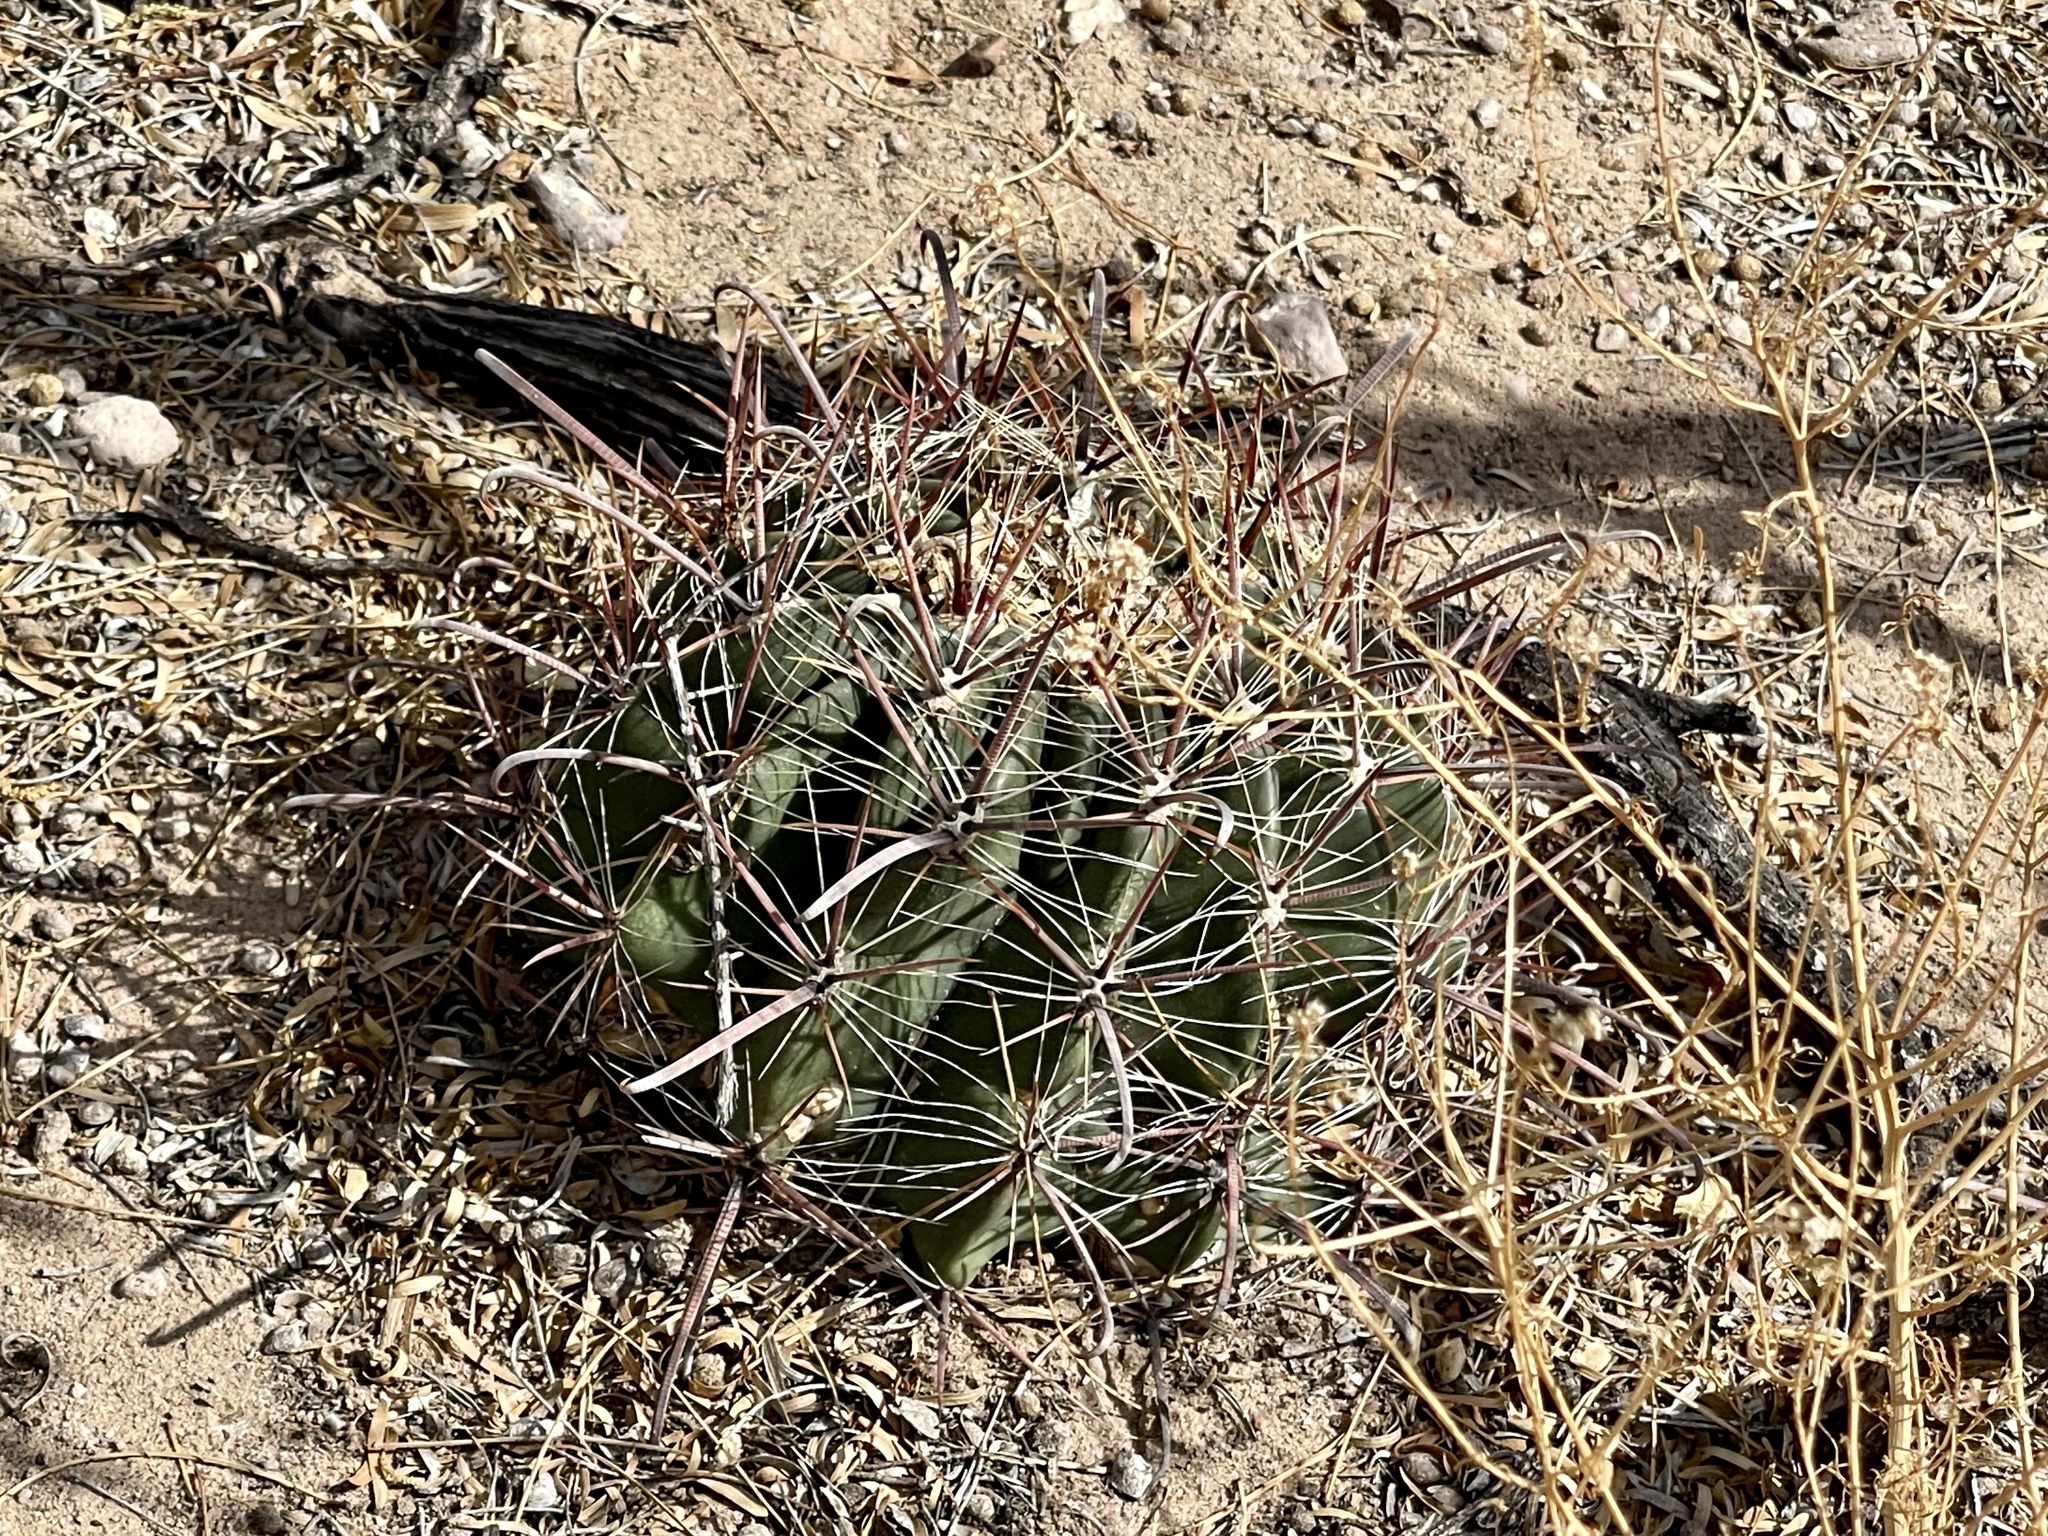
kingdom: Plantae
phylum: Tracheophyta
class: Magnoliopsida
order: Caryophyllales
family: Cactaceae
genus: Ferocactus
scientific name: Ferocactus wislizeni
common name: Candy barrel cactus
